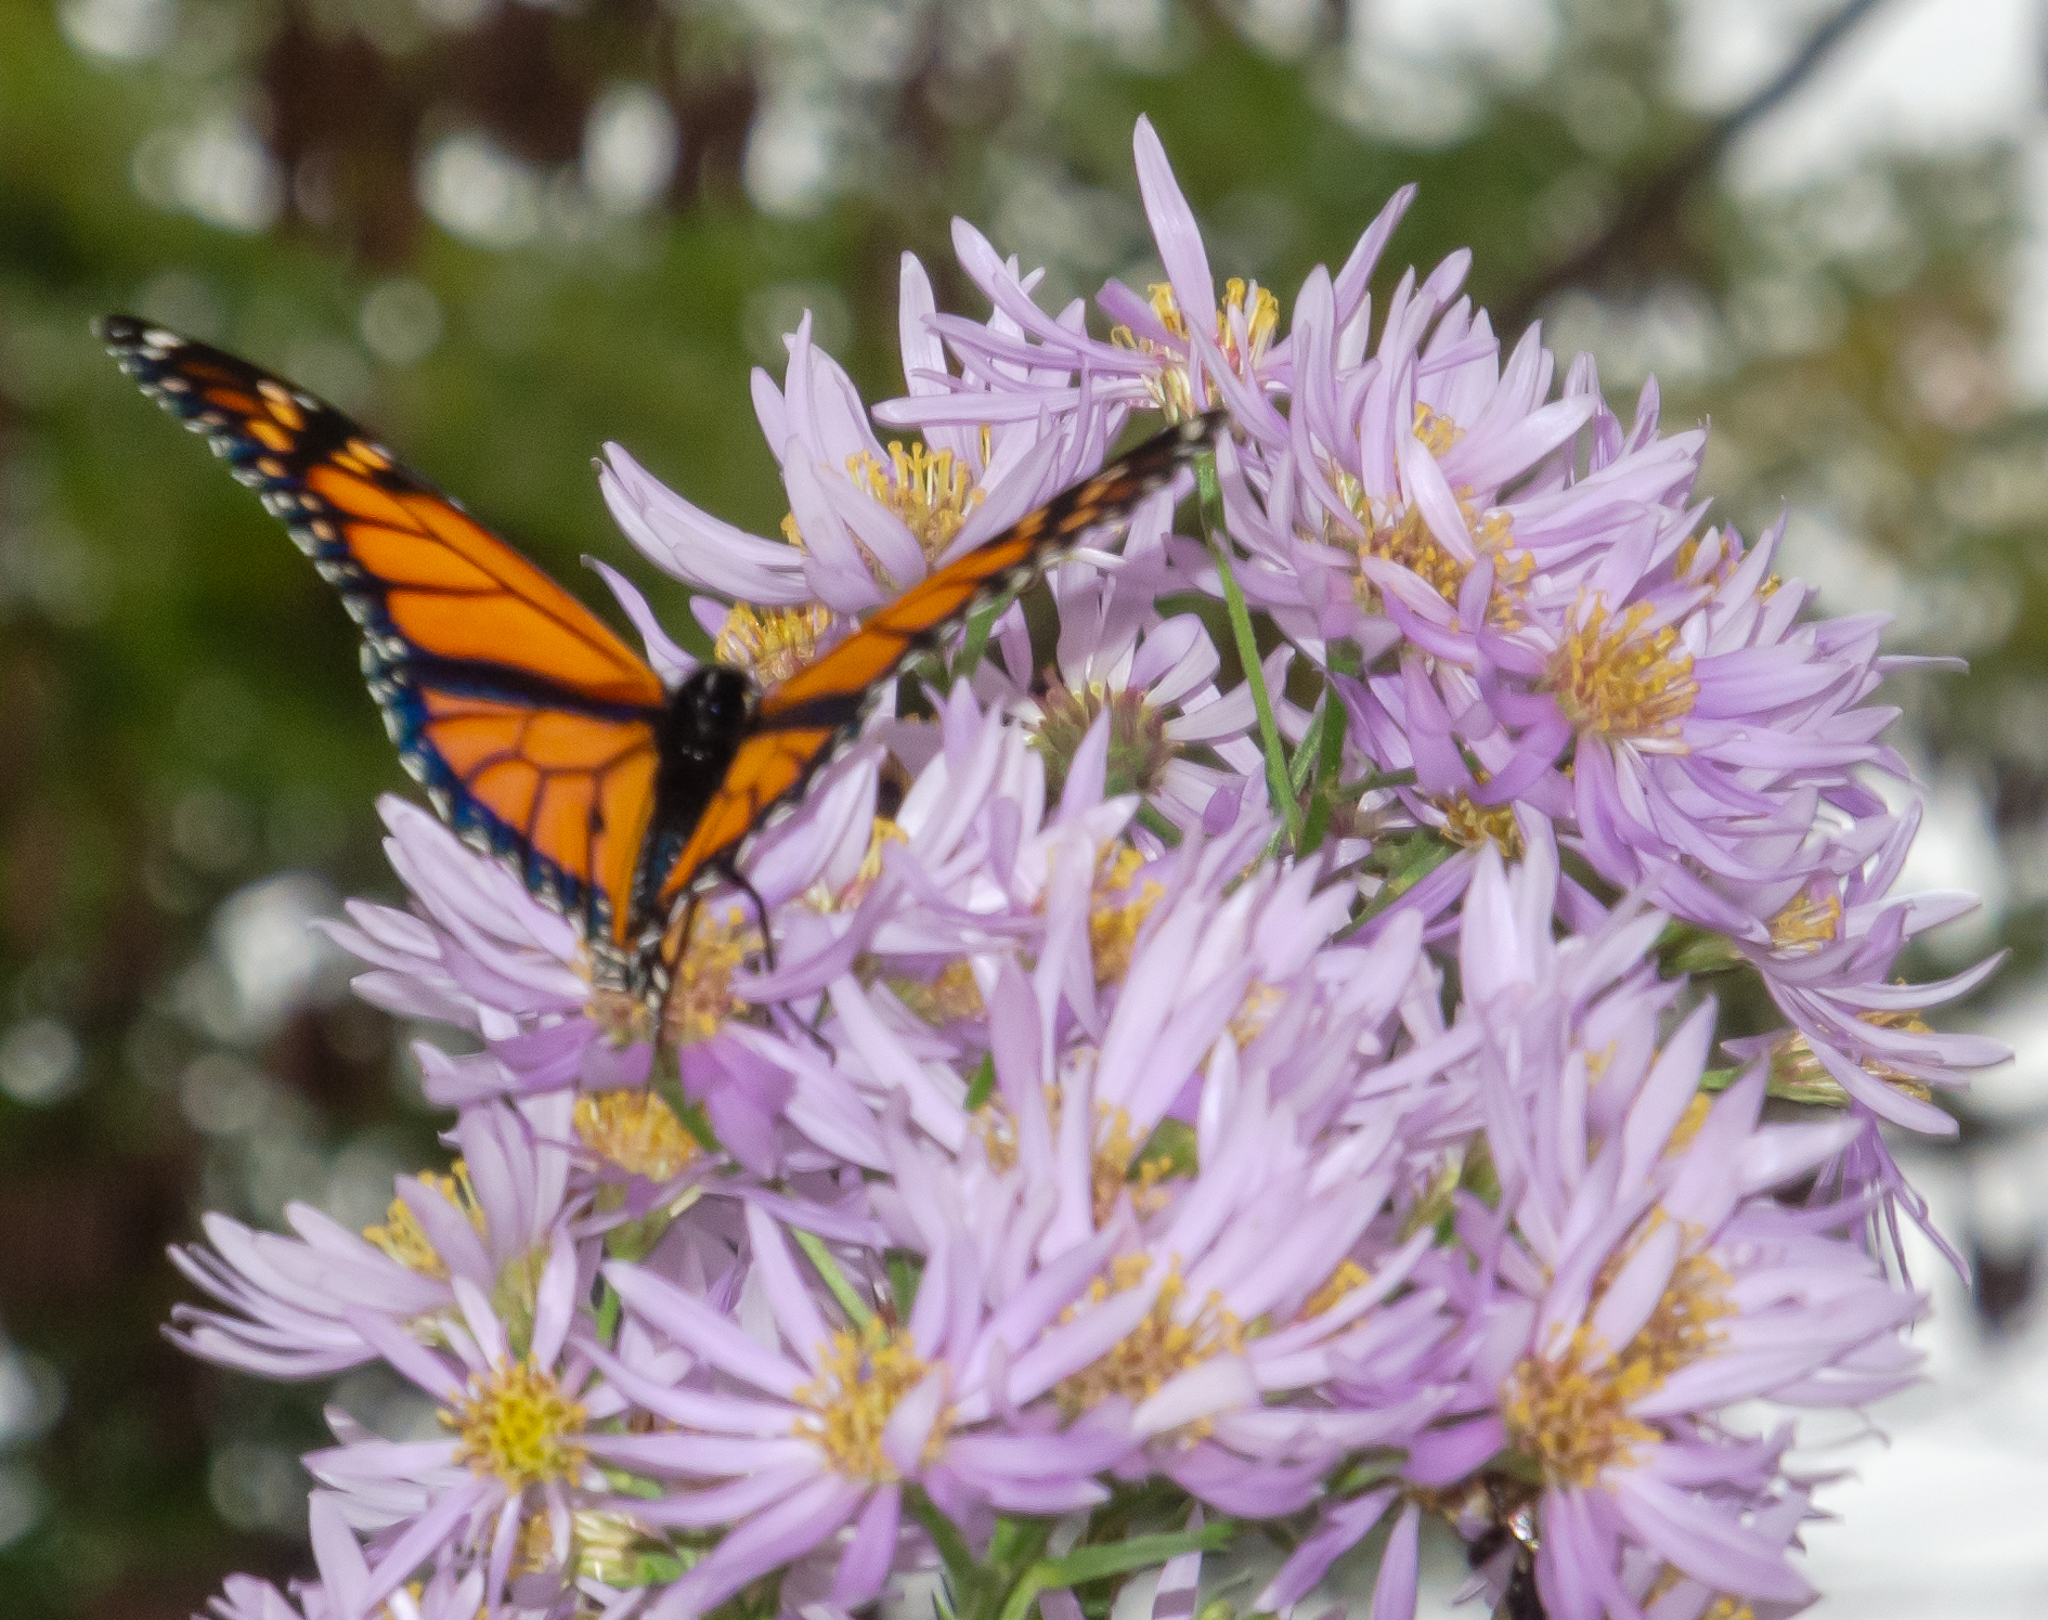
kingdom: Animalia
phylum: Arthropoda
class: Insecta
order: Lepidoptera
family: Nymphalidae
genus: Danaus
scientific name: Danaus plexippus
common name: Monarch
